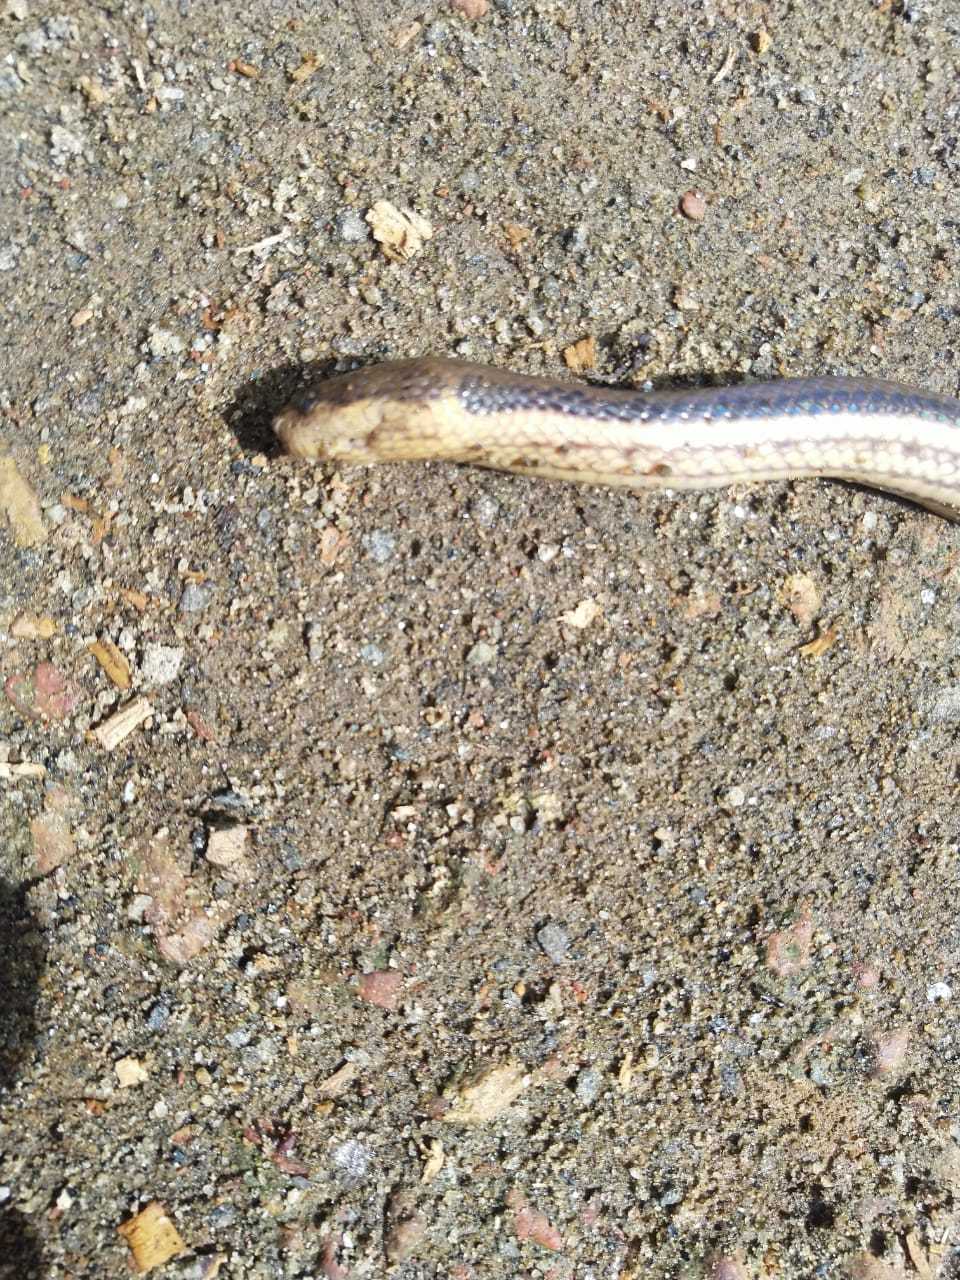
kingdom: Animalia
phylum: Chordata
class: Squamata
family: Homalopsidae
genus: Dieurostus
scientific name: Dieurostus dussumieri
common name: Dussumier's water snake
